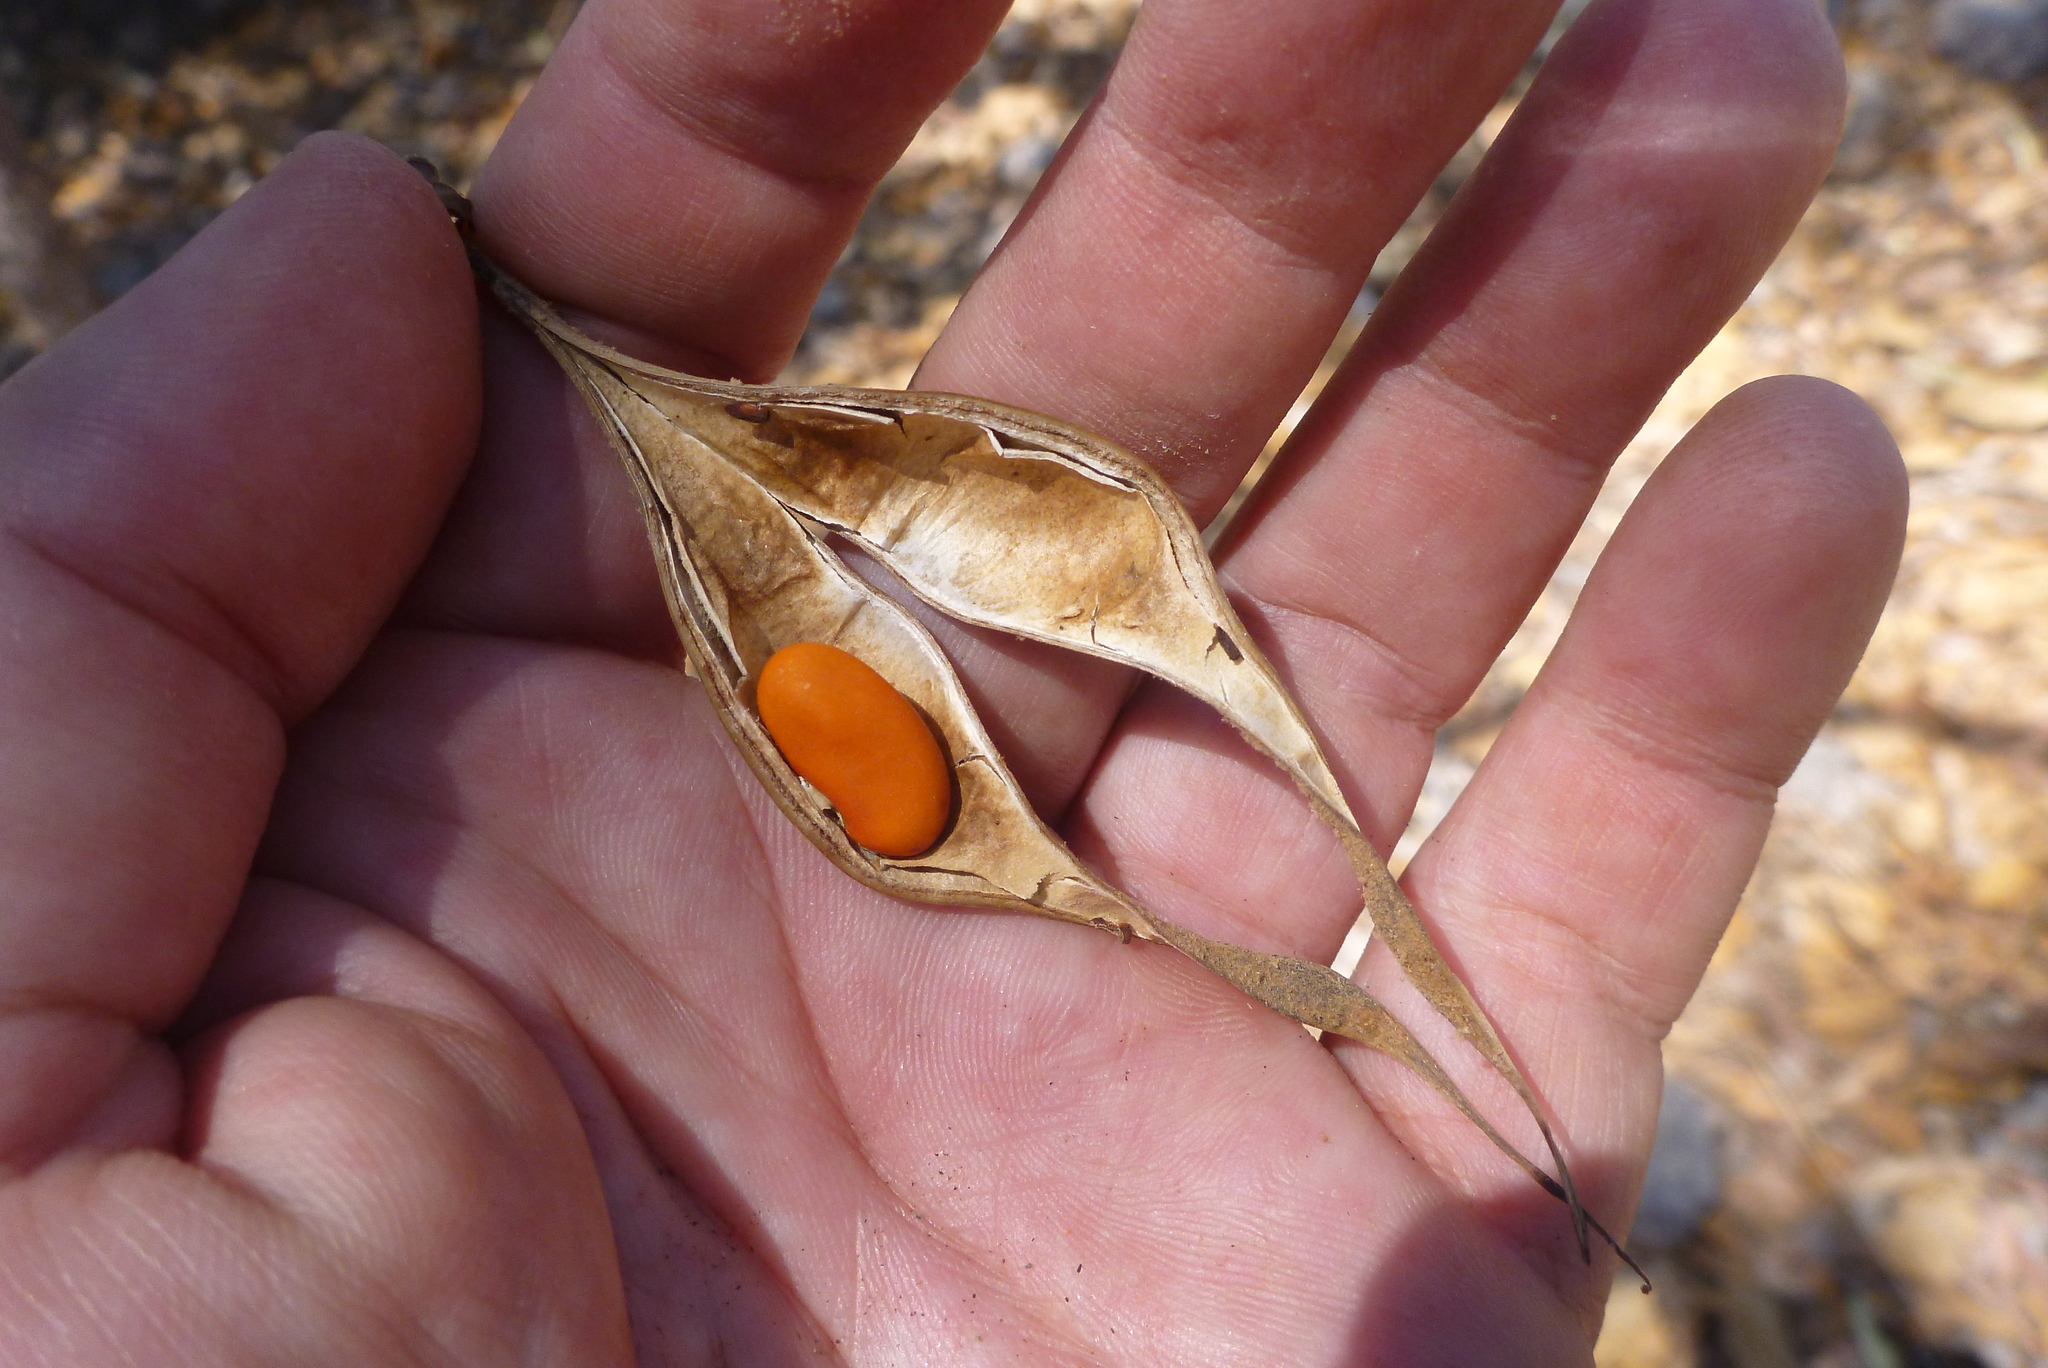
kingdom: Plantae
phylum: Tracheophyta
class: Magnoliopsida
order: Fabales
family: Fabaceae
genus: Erythrina
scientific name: Erythrina vespertilio
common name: Bat-wing coral tree
